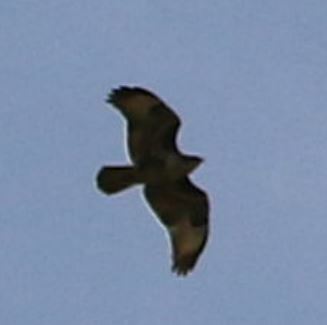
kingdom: Animalia
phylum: Chordata
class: Aves
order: Accipitriformes
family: Accipitridae
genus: Buteo
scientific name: Buteo buteo
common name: Common buzzard
